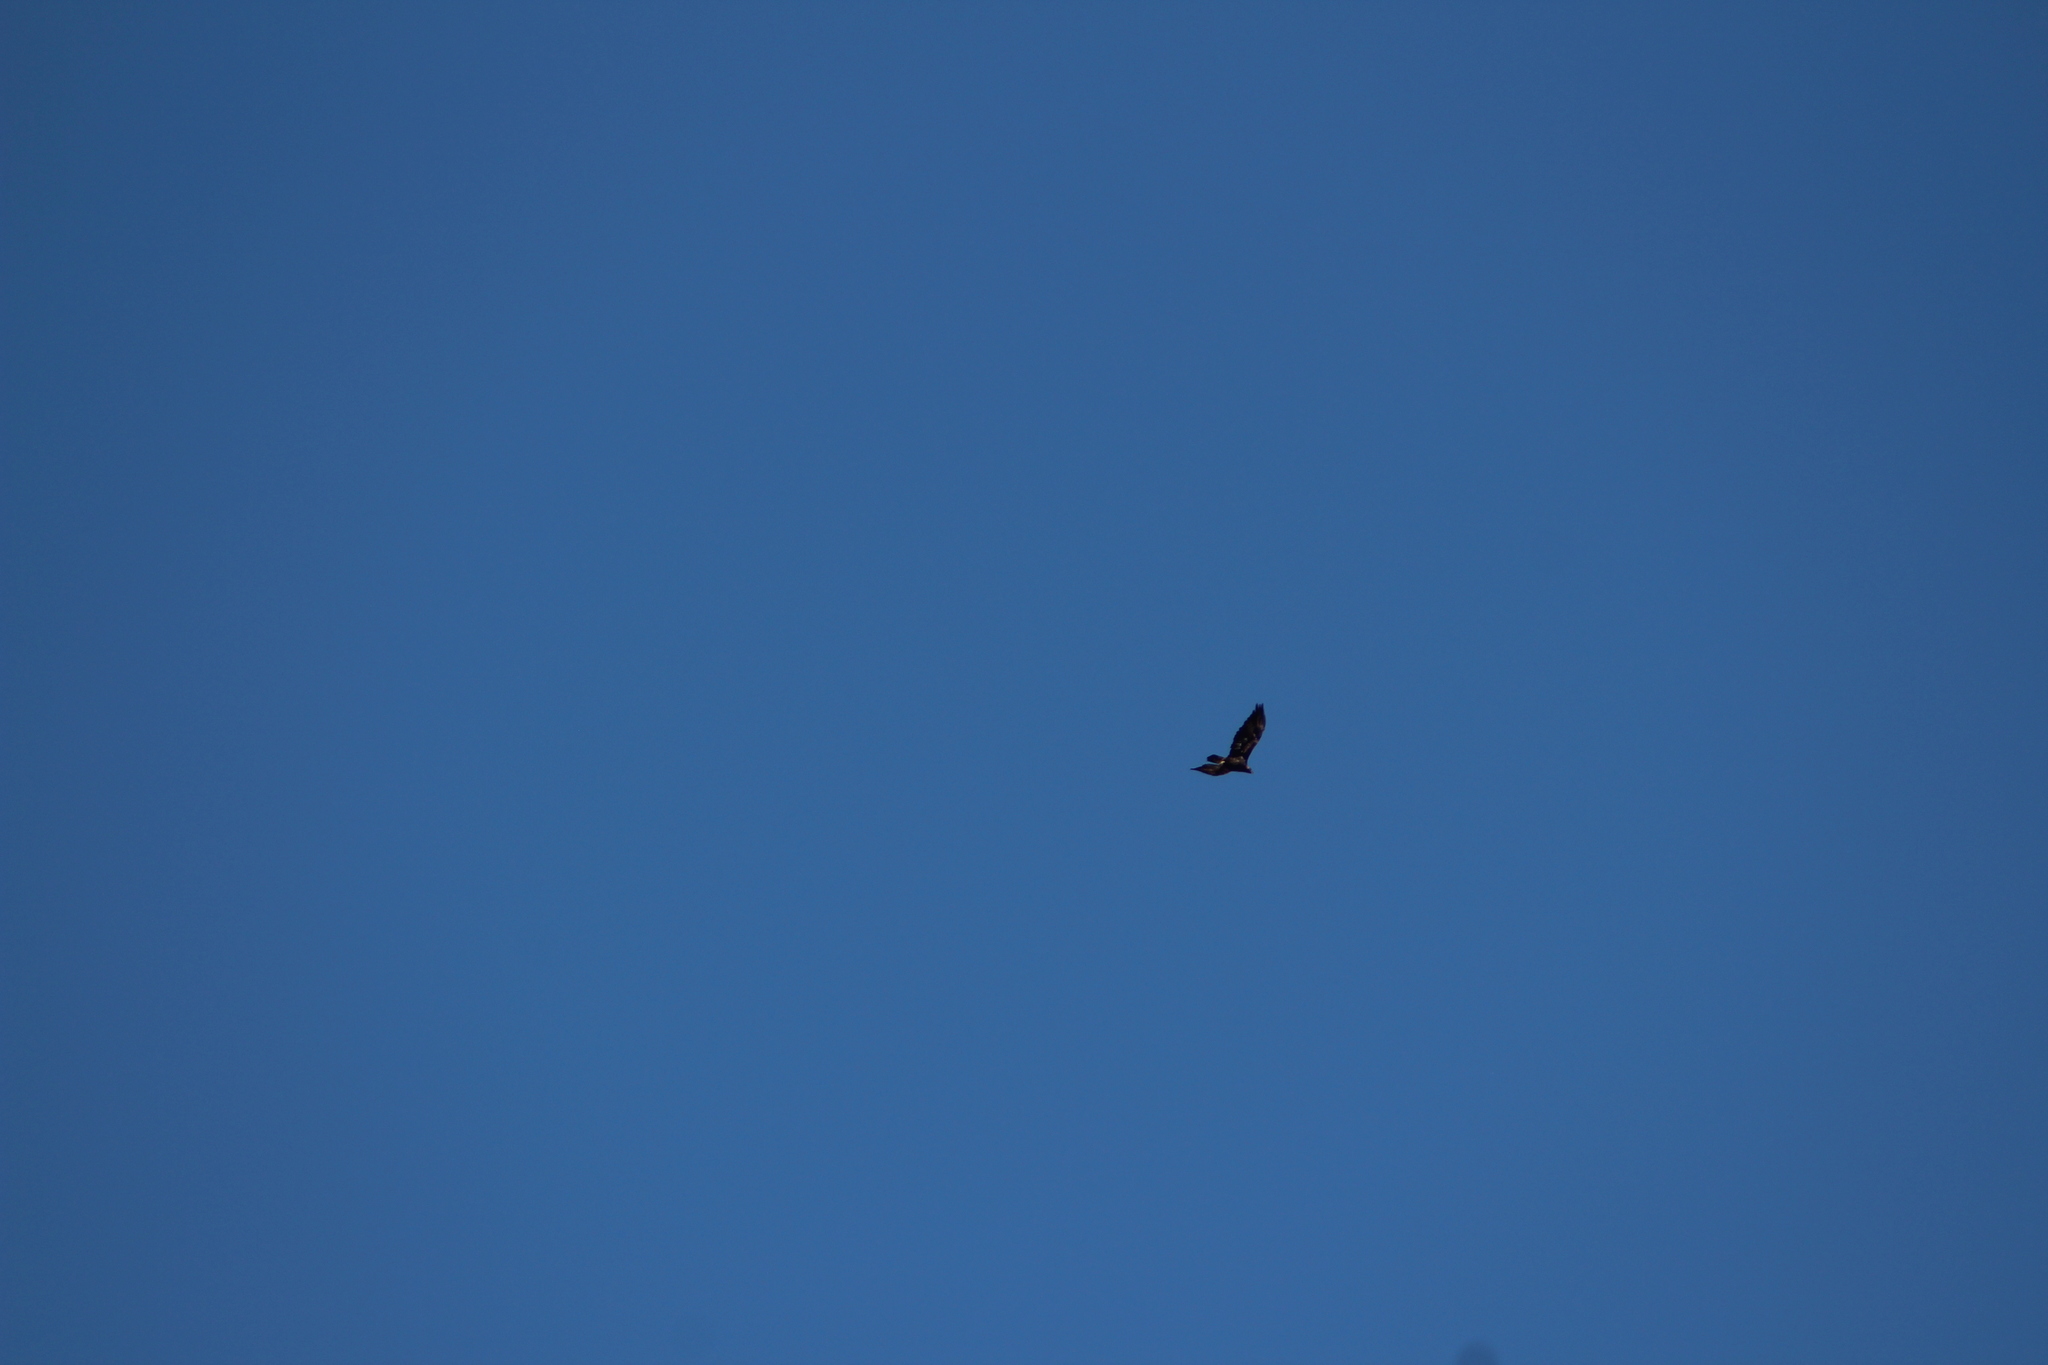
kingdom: Animalia
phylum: Chordata
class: Aves
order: Accipitriformes
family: Accipitridae
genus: Aquila
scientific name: Aquila chrysaetos
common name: Golden eagle
